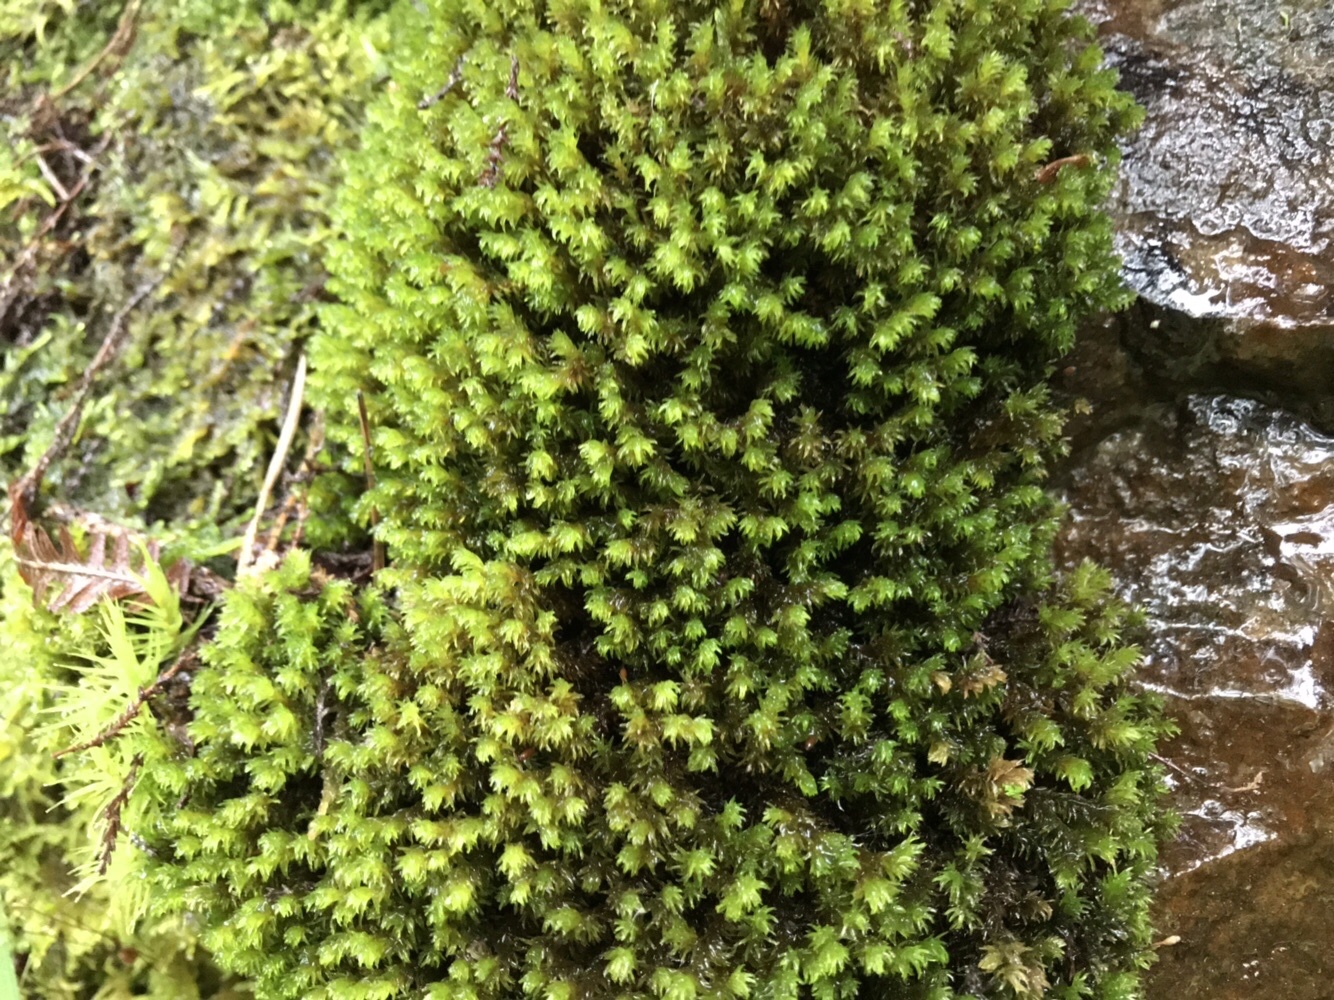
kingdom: Plantae
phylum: Bryophyta
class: Bryopsida
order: Grimmiales
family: Grimmiaceae
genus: Codriophorus
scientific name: Codriophorus aquaticus
